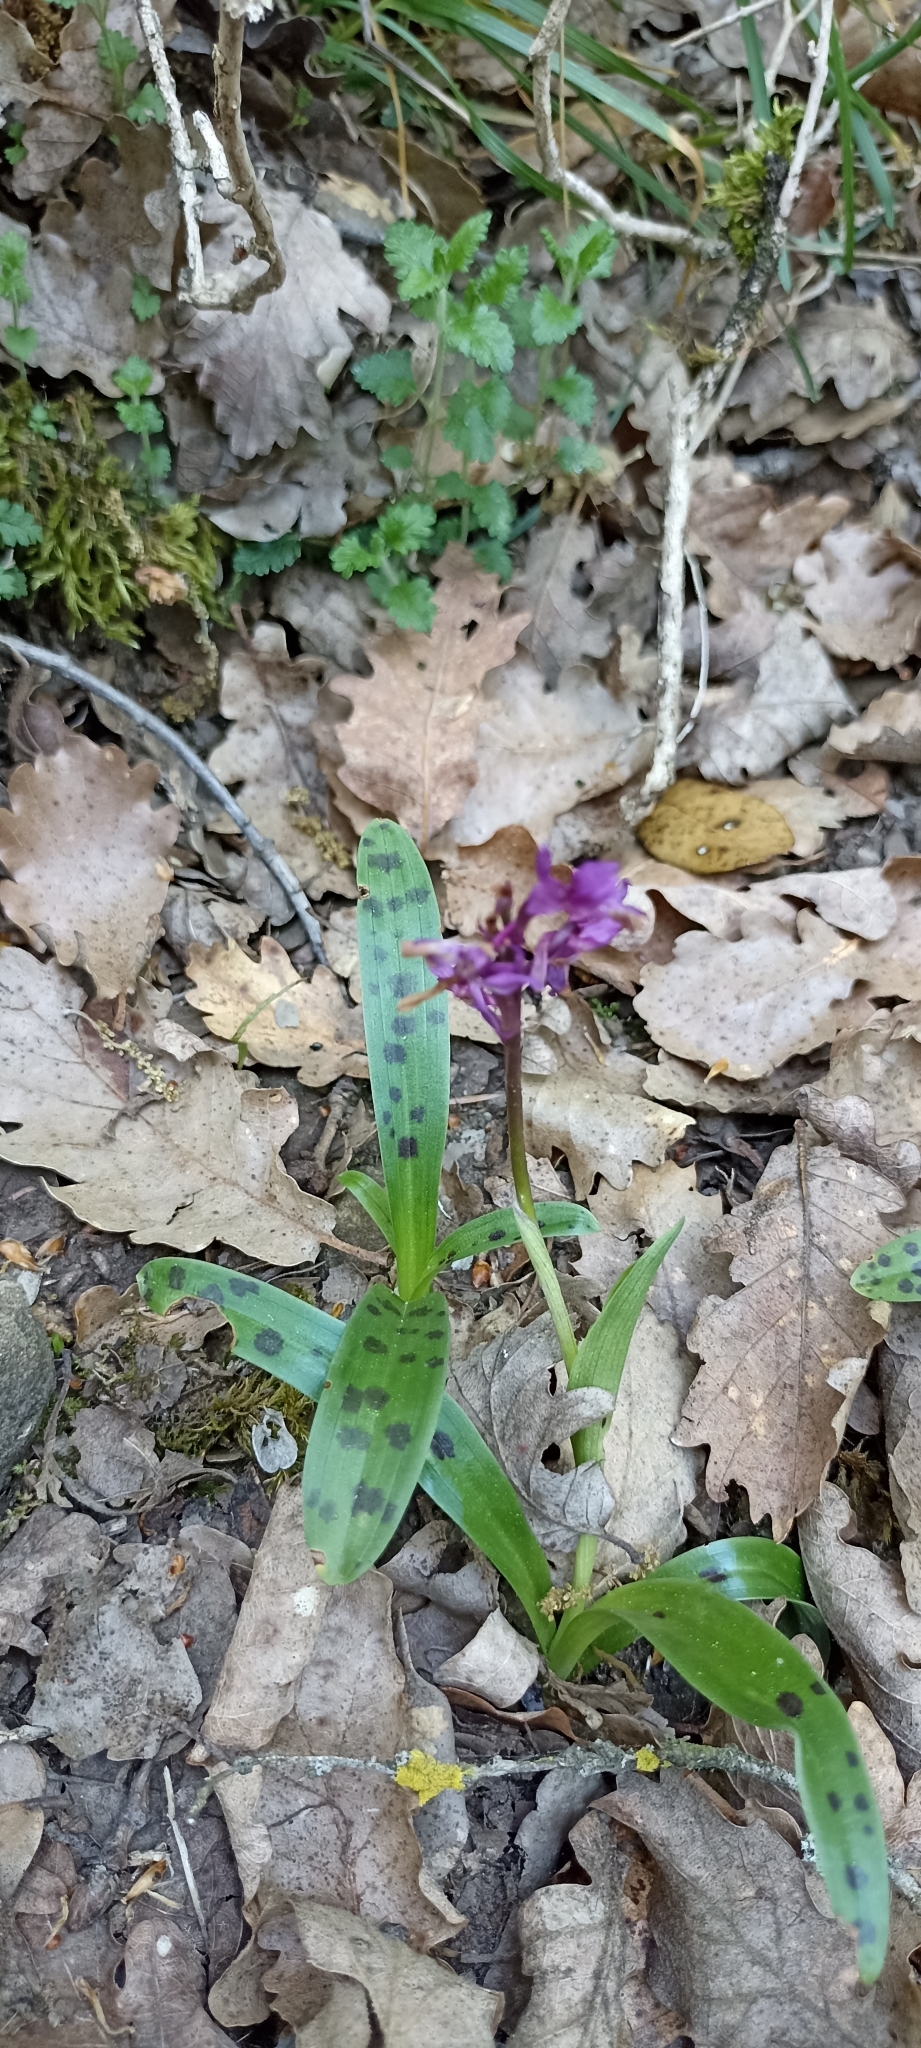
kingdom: Plantae
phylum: Tracheophyta
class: Liliopsida
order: Asparagales
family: Orchidaceae
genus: Orchis
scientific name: Orchis mascula
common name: Early-purple orchid
